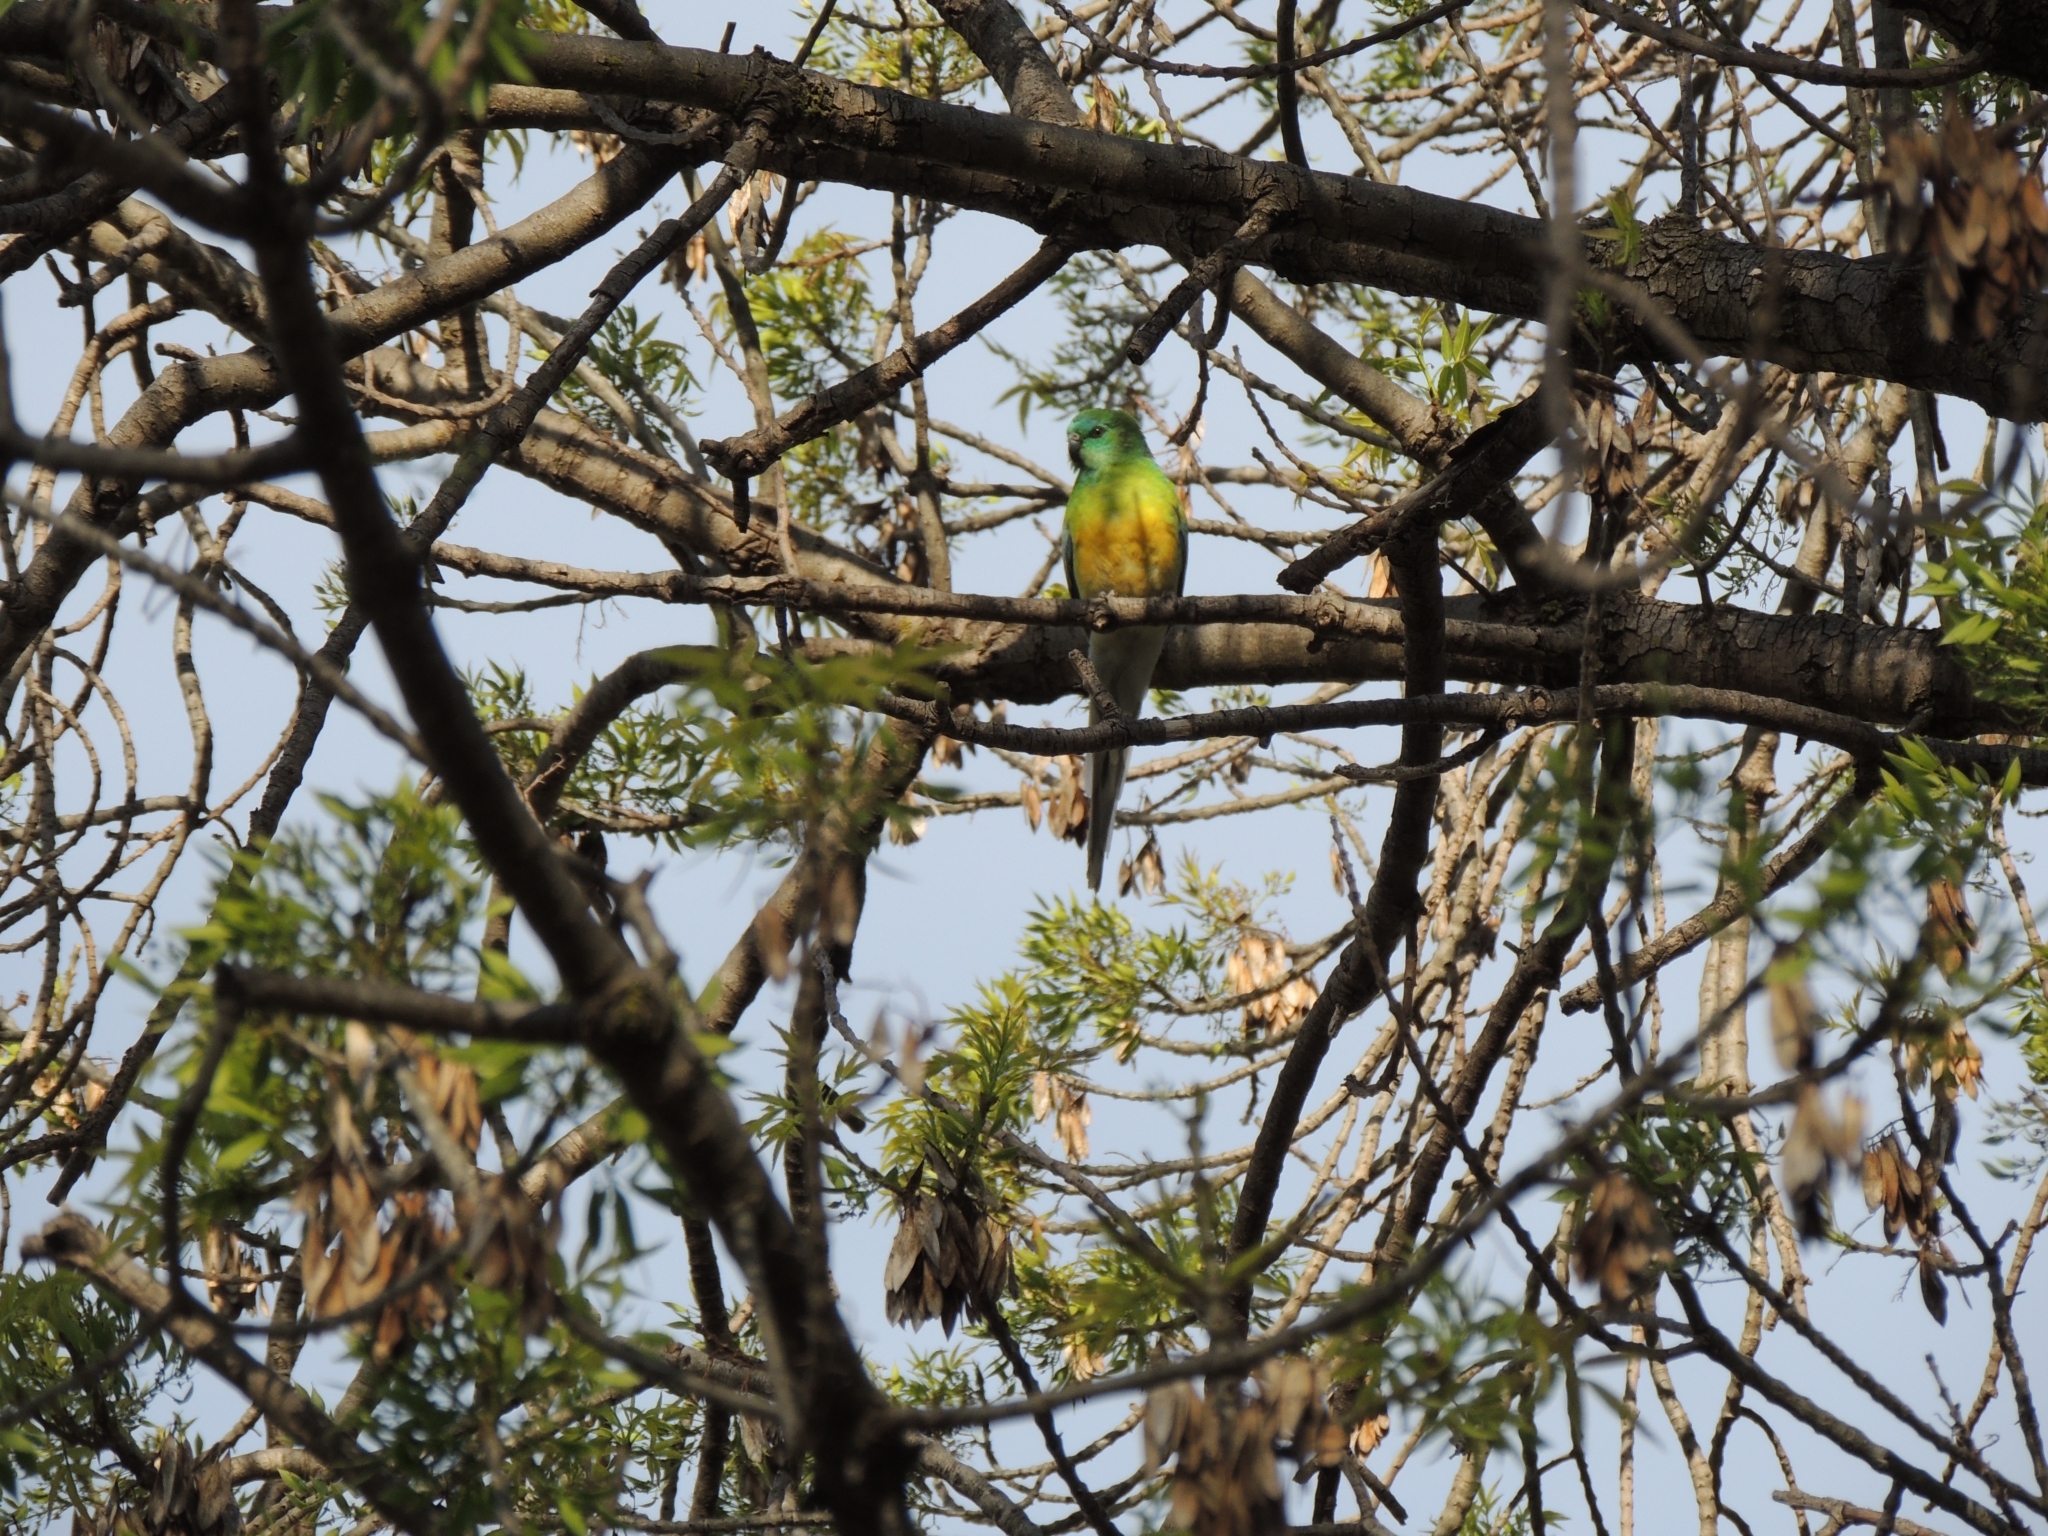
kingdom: Animalia
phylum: Chordata
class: Aves
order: Psittaciformes
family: Psittacidae
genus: Psephotus
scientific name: Psephotus haematonotus
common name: Red-rumped parrot
